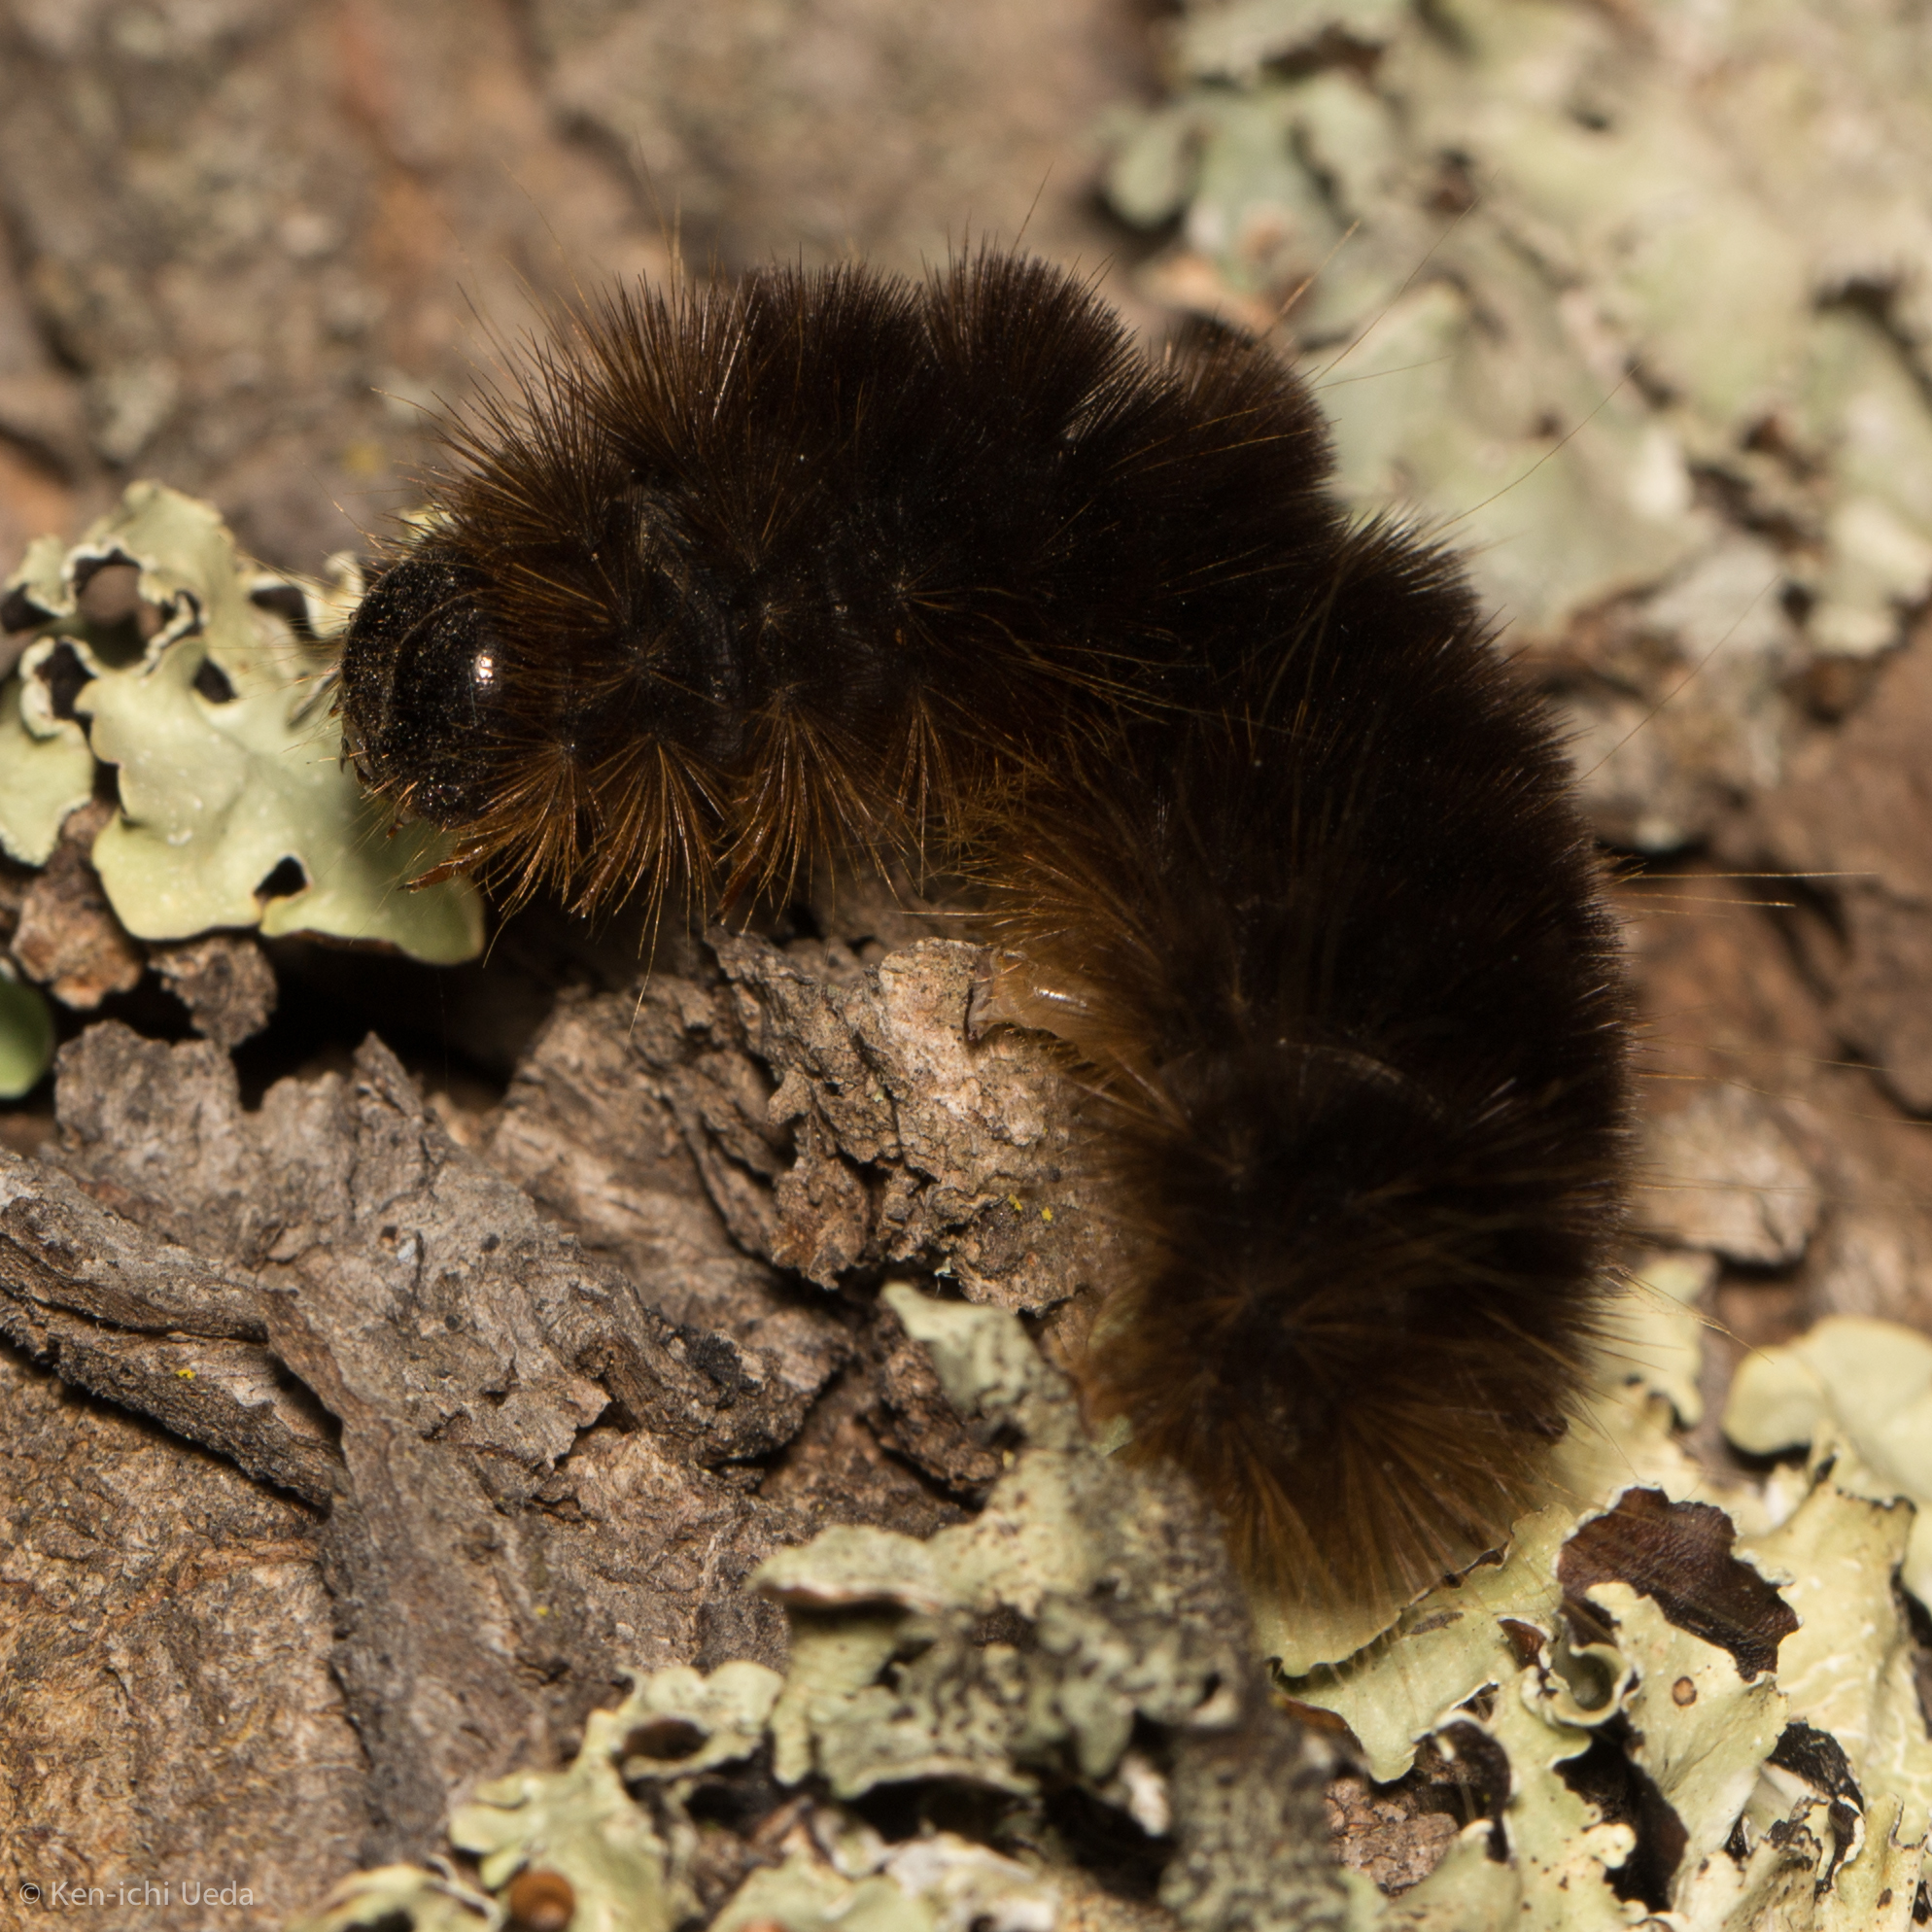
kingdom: Animalia
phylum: Arthropoda
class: Insecta
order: Lepidoptera
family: Erebidae
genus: Hemihyalea
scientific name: Hemihyalea edwardsii
